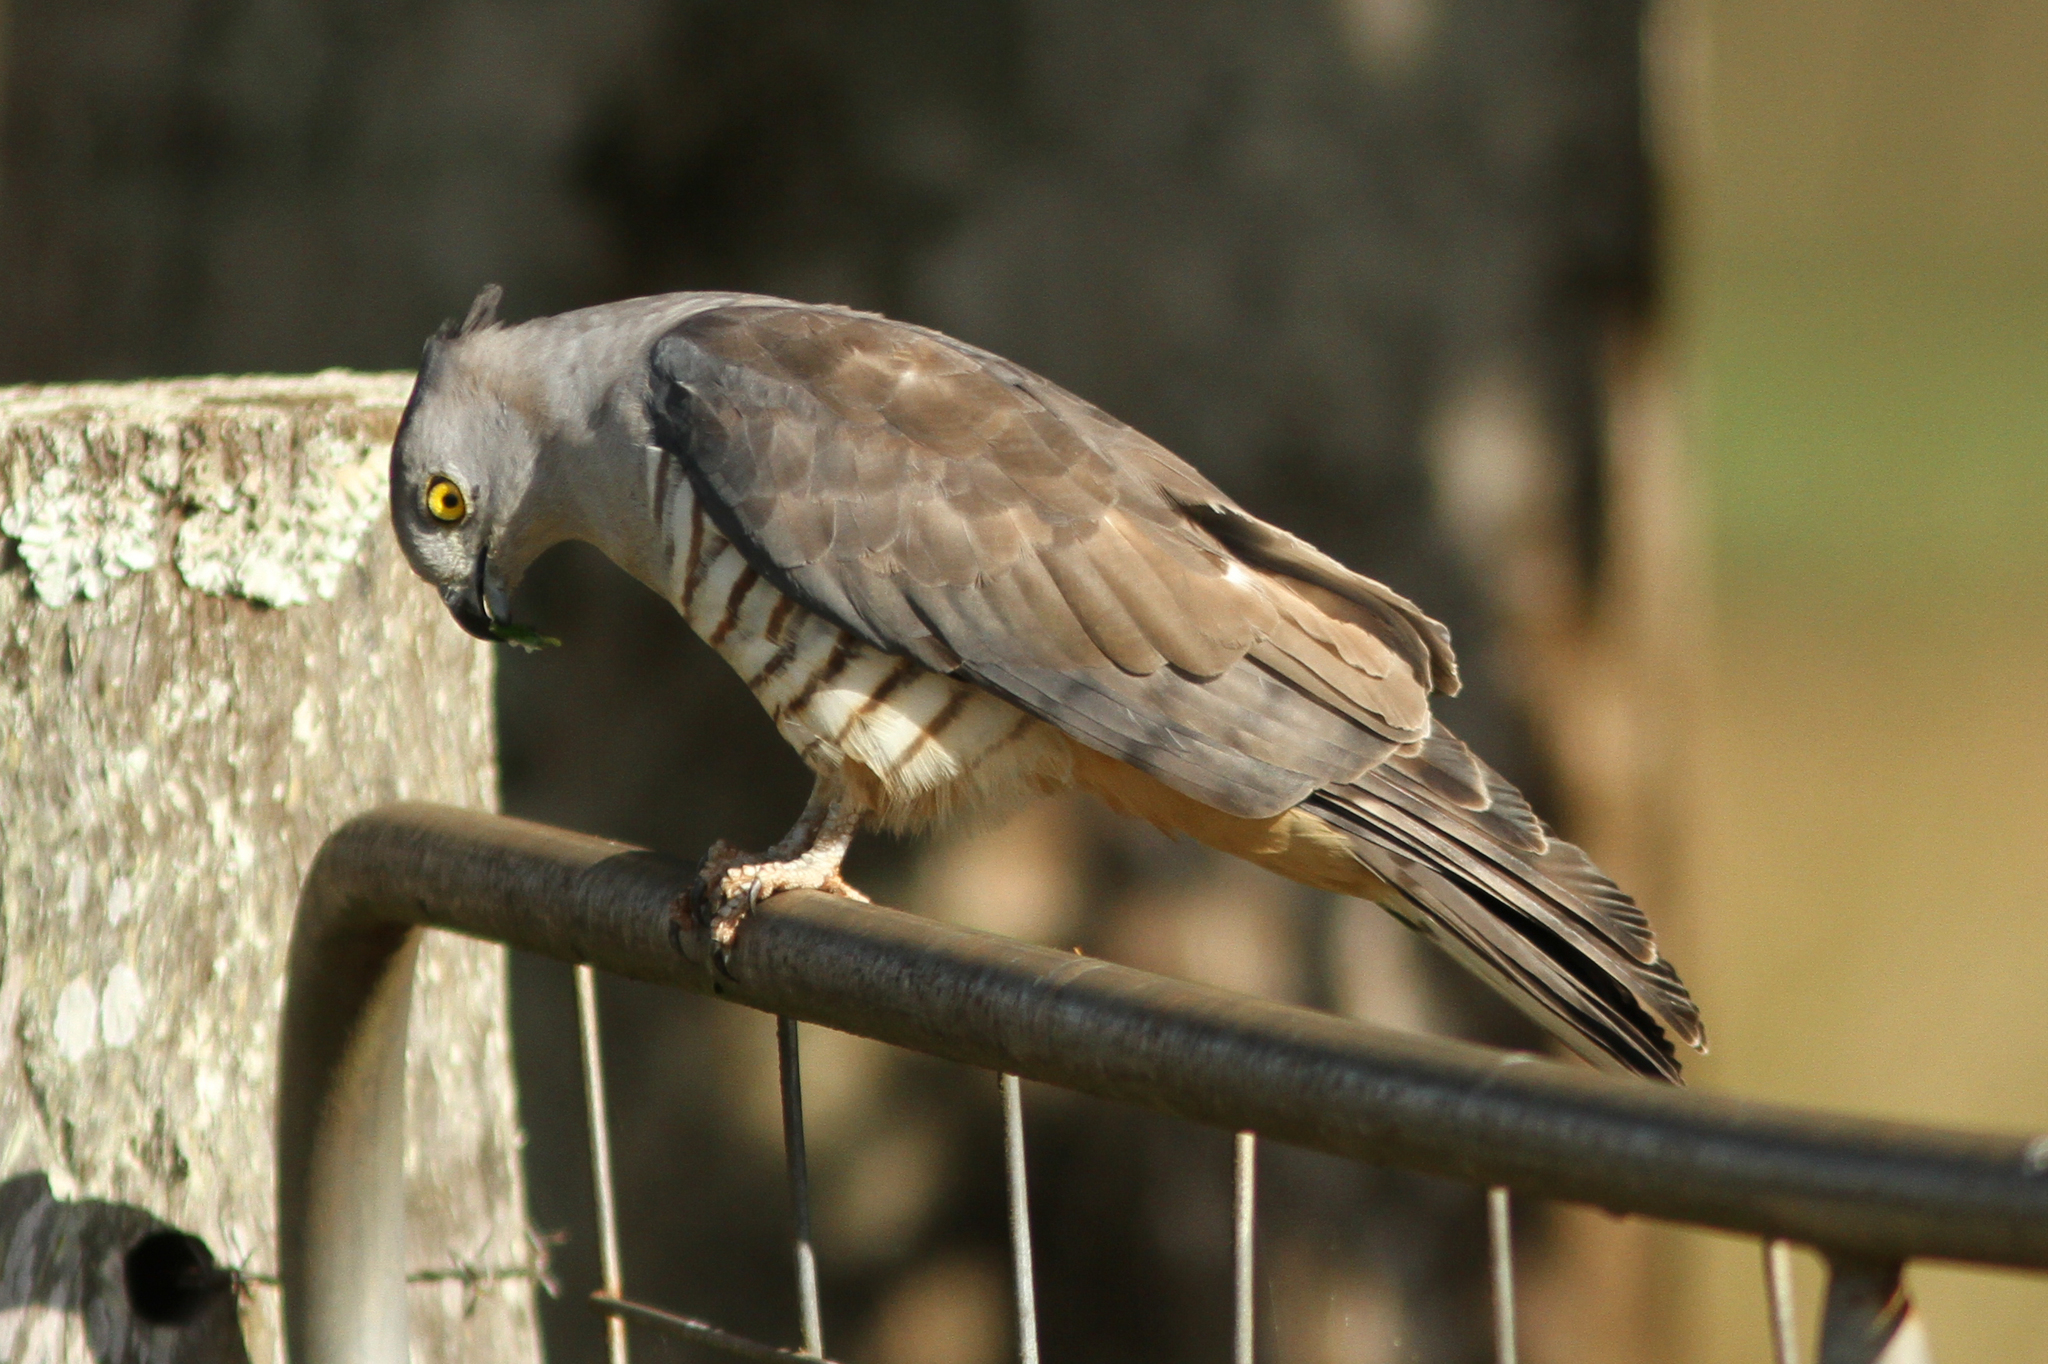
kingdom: Animalia
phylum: Chordata
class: Aves
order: Accipitriformes
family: Accipitridae
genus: Aviceda
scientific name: Aviceda subcristata
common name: Pacific baza
